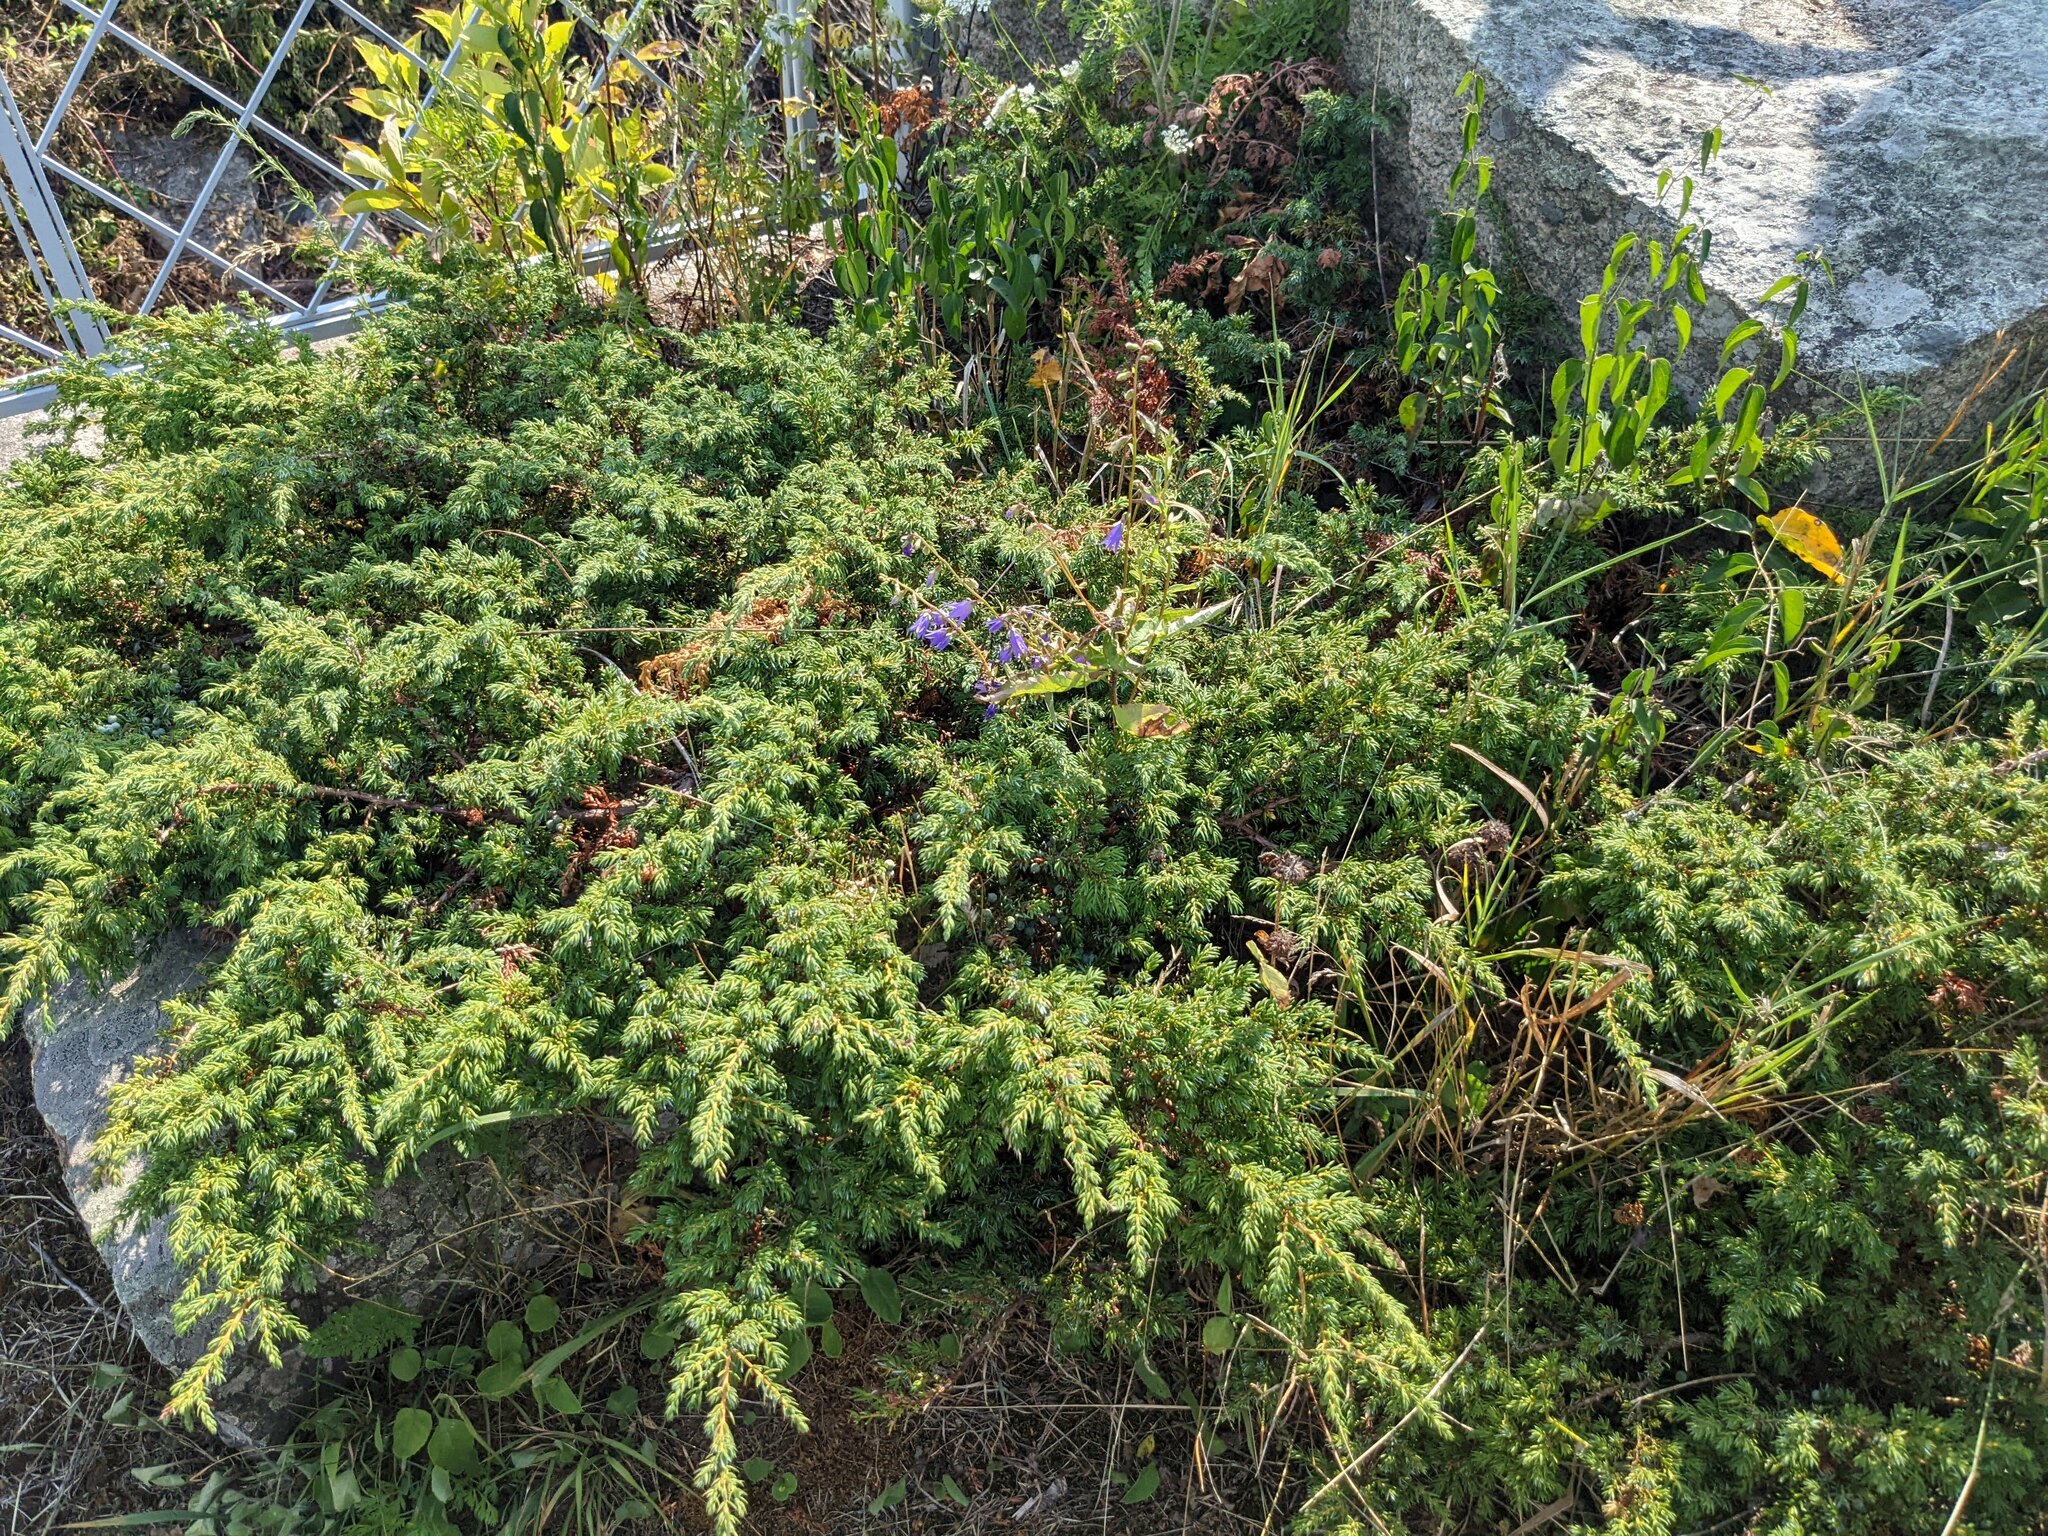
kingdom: Plantae
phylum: Tracheophyta
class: Pinopsida
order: Pinales
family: Cupressaceae
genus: Juniperus
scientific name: Juniperus communis
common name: Common juniper
